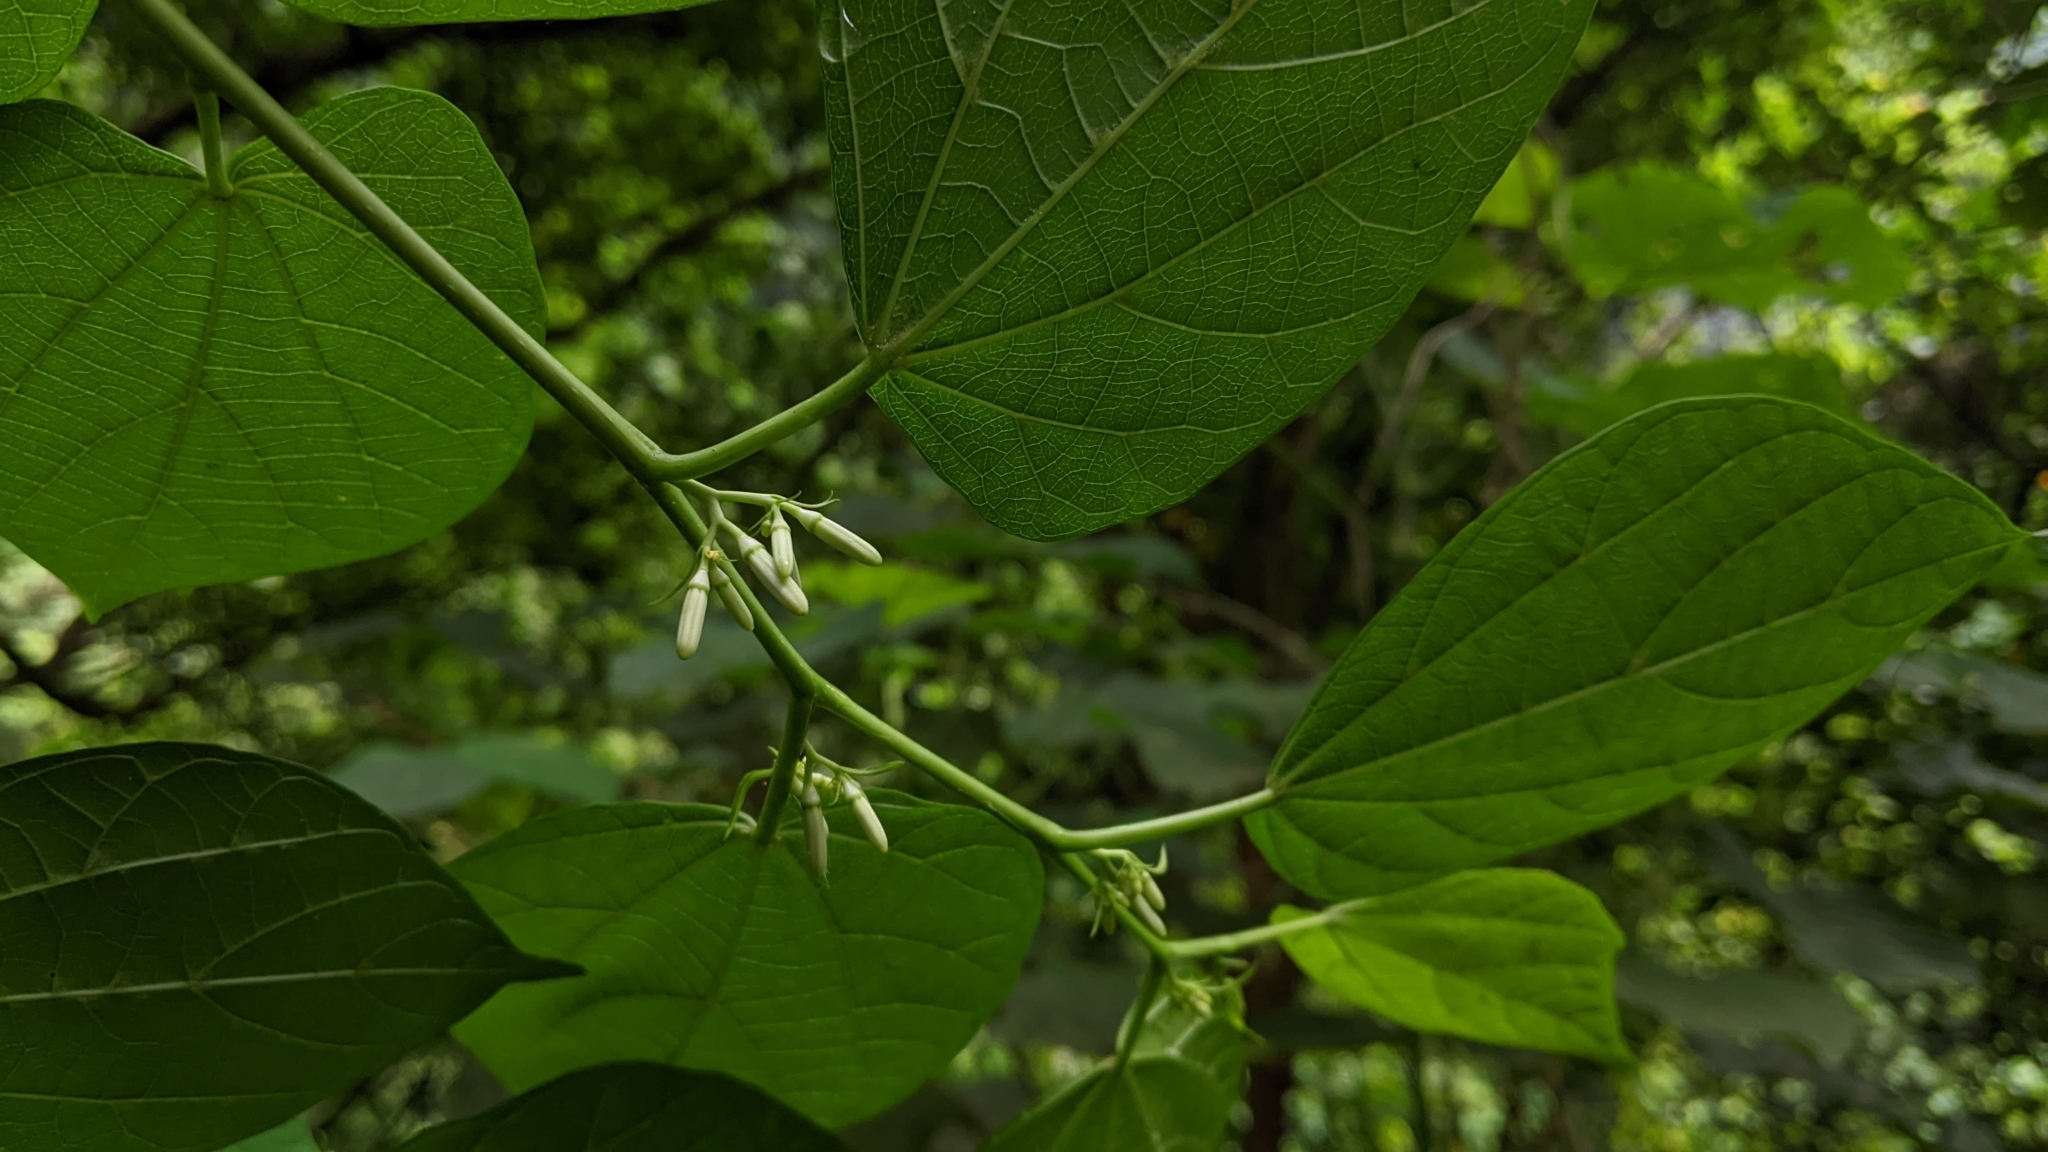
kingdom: Plantae
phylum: Tracheophyta
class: Magnoliopsida
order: Cornales
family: Cornaceae
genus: Alangium
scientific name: Alangium chinense
